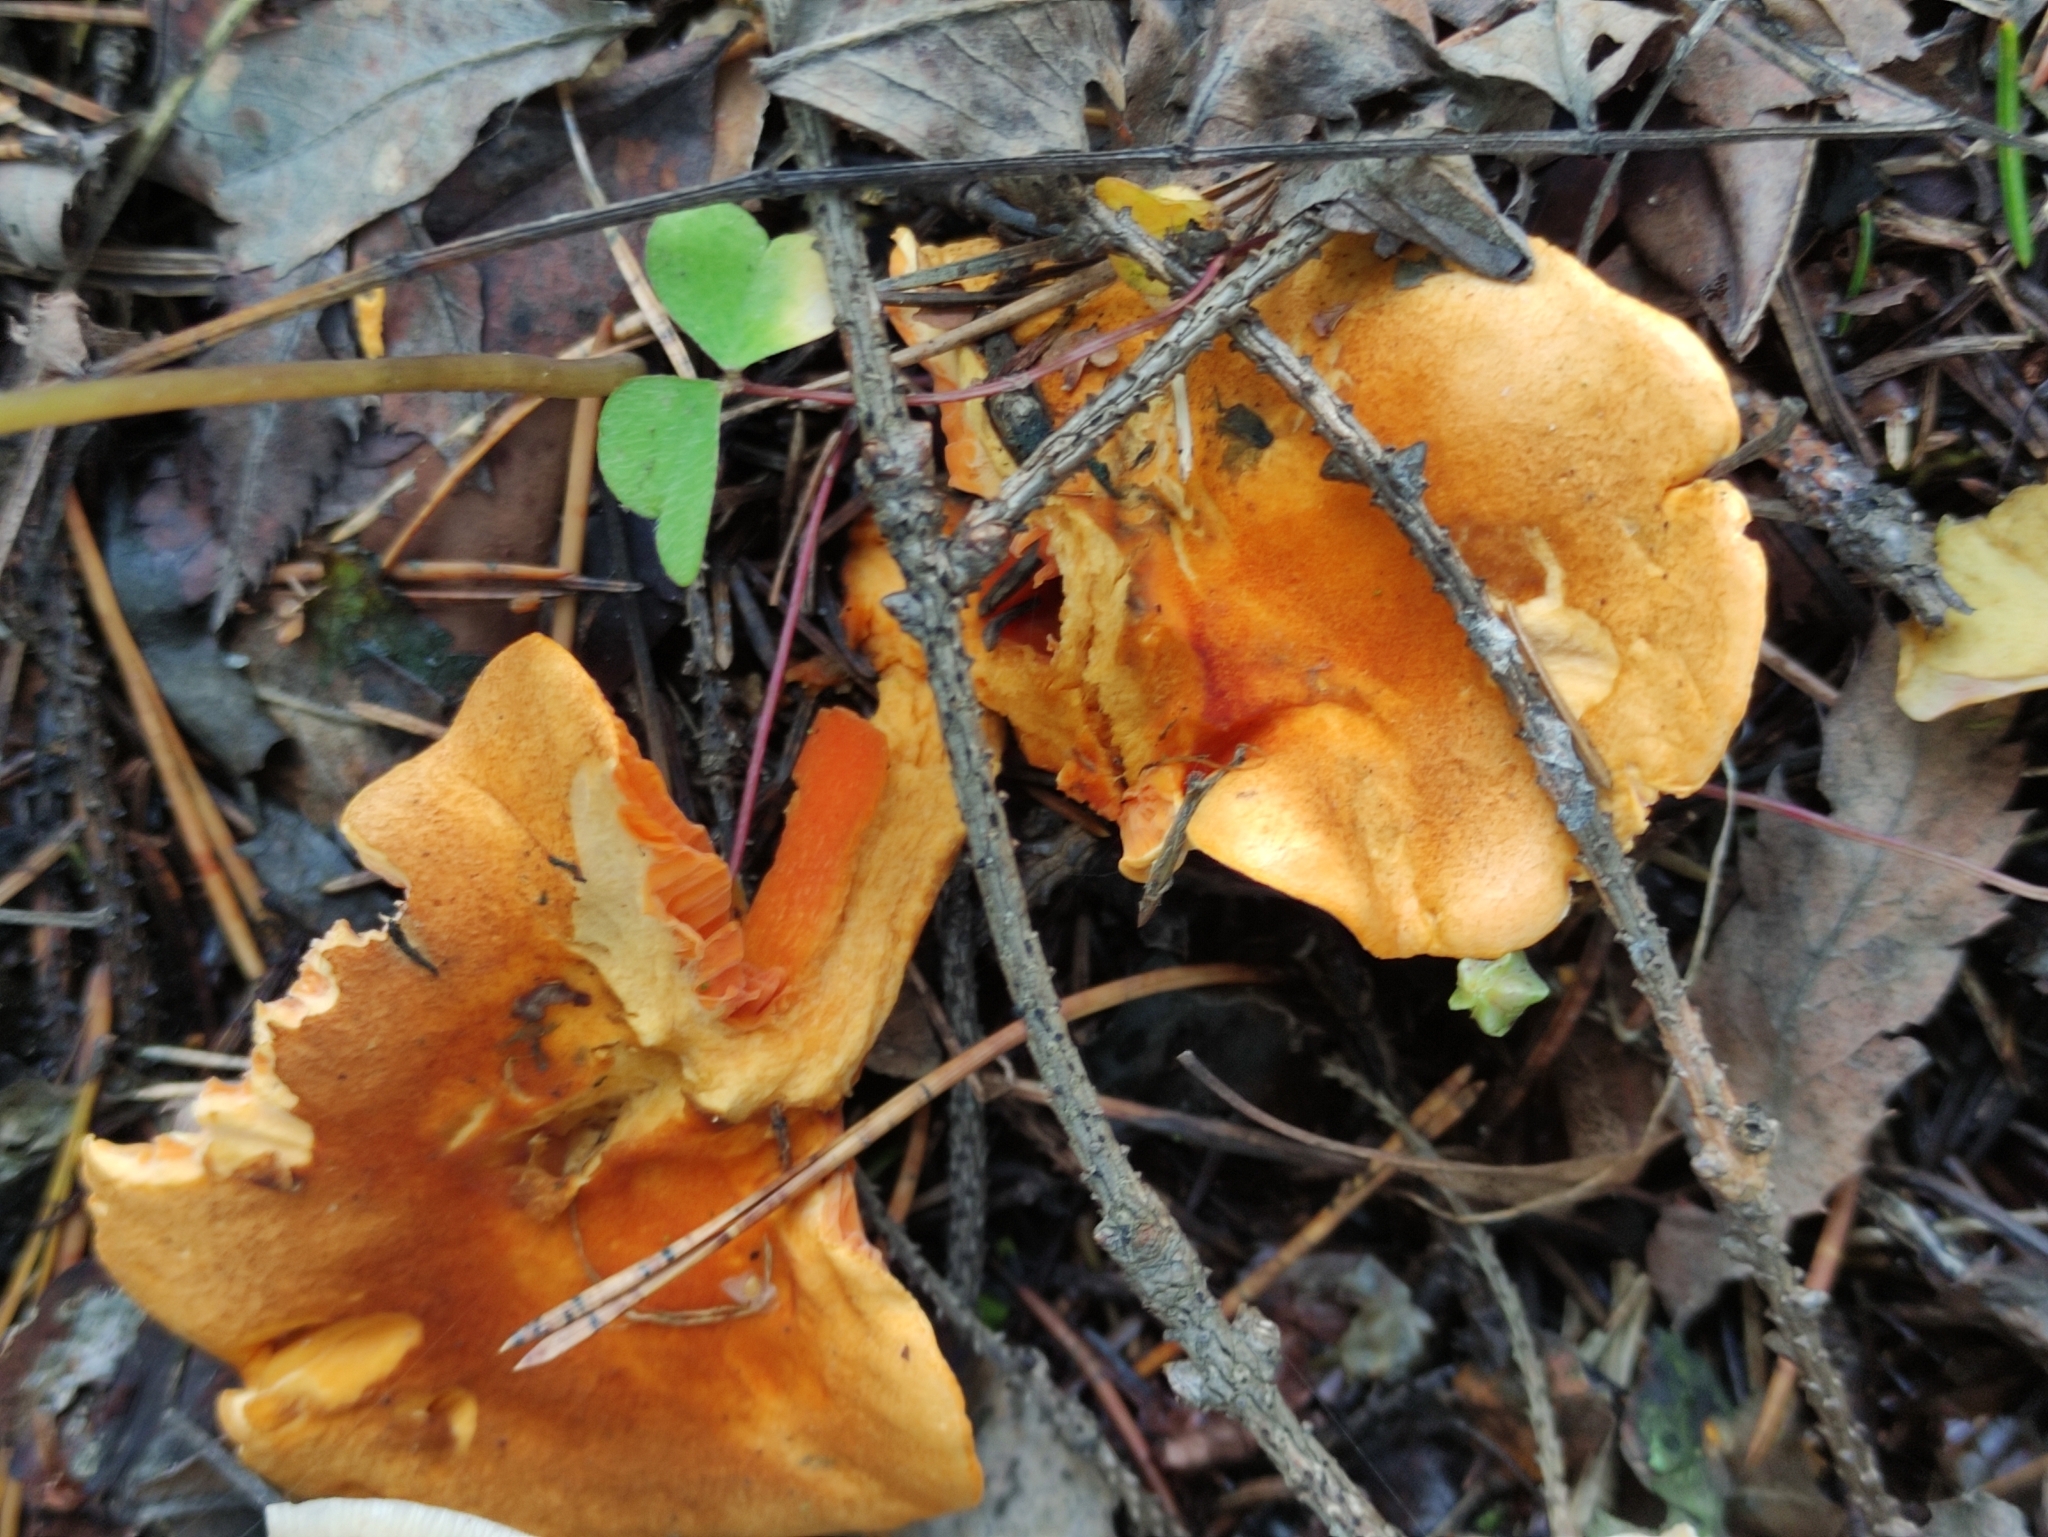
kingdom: Fungi
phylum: Basidiomycota
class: Agaricomycetes
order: Boletales
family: Hygrophoropsidaceae
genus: Hygrophoropsis
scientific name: Hygrophoropsis aurantiaca
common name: False chanterelle
